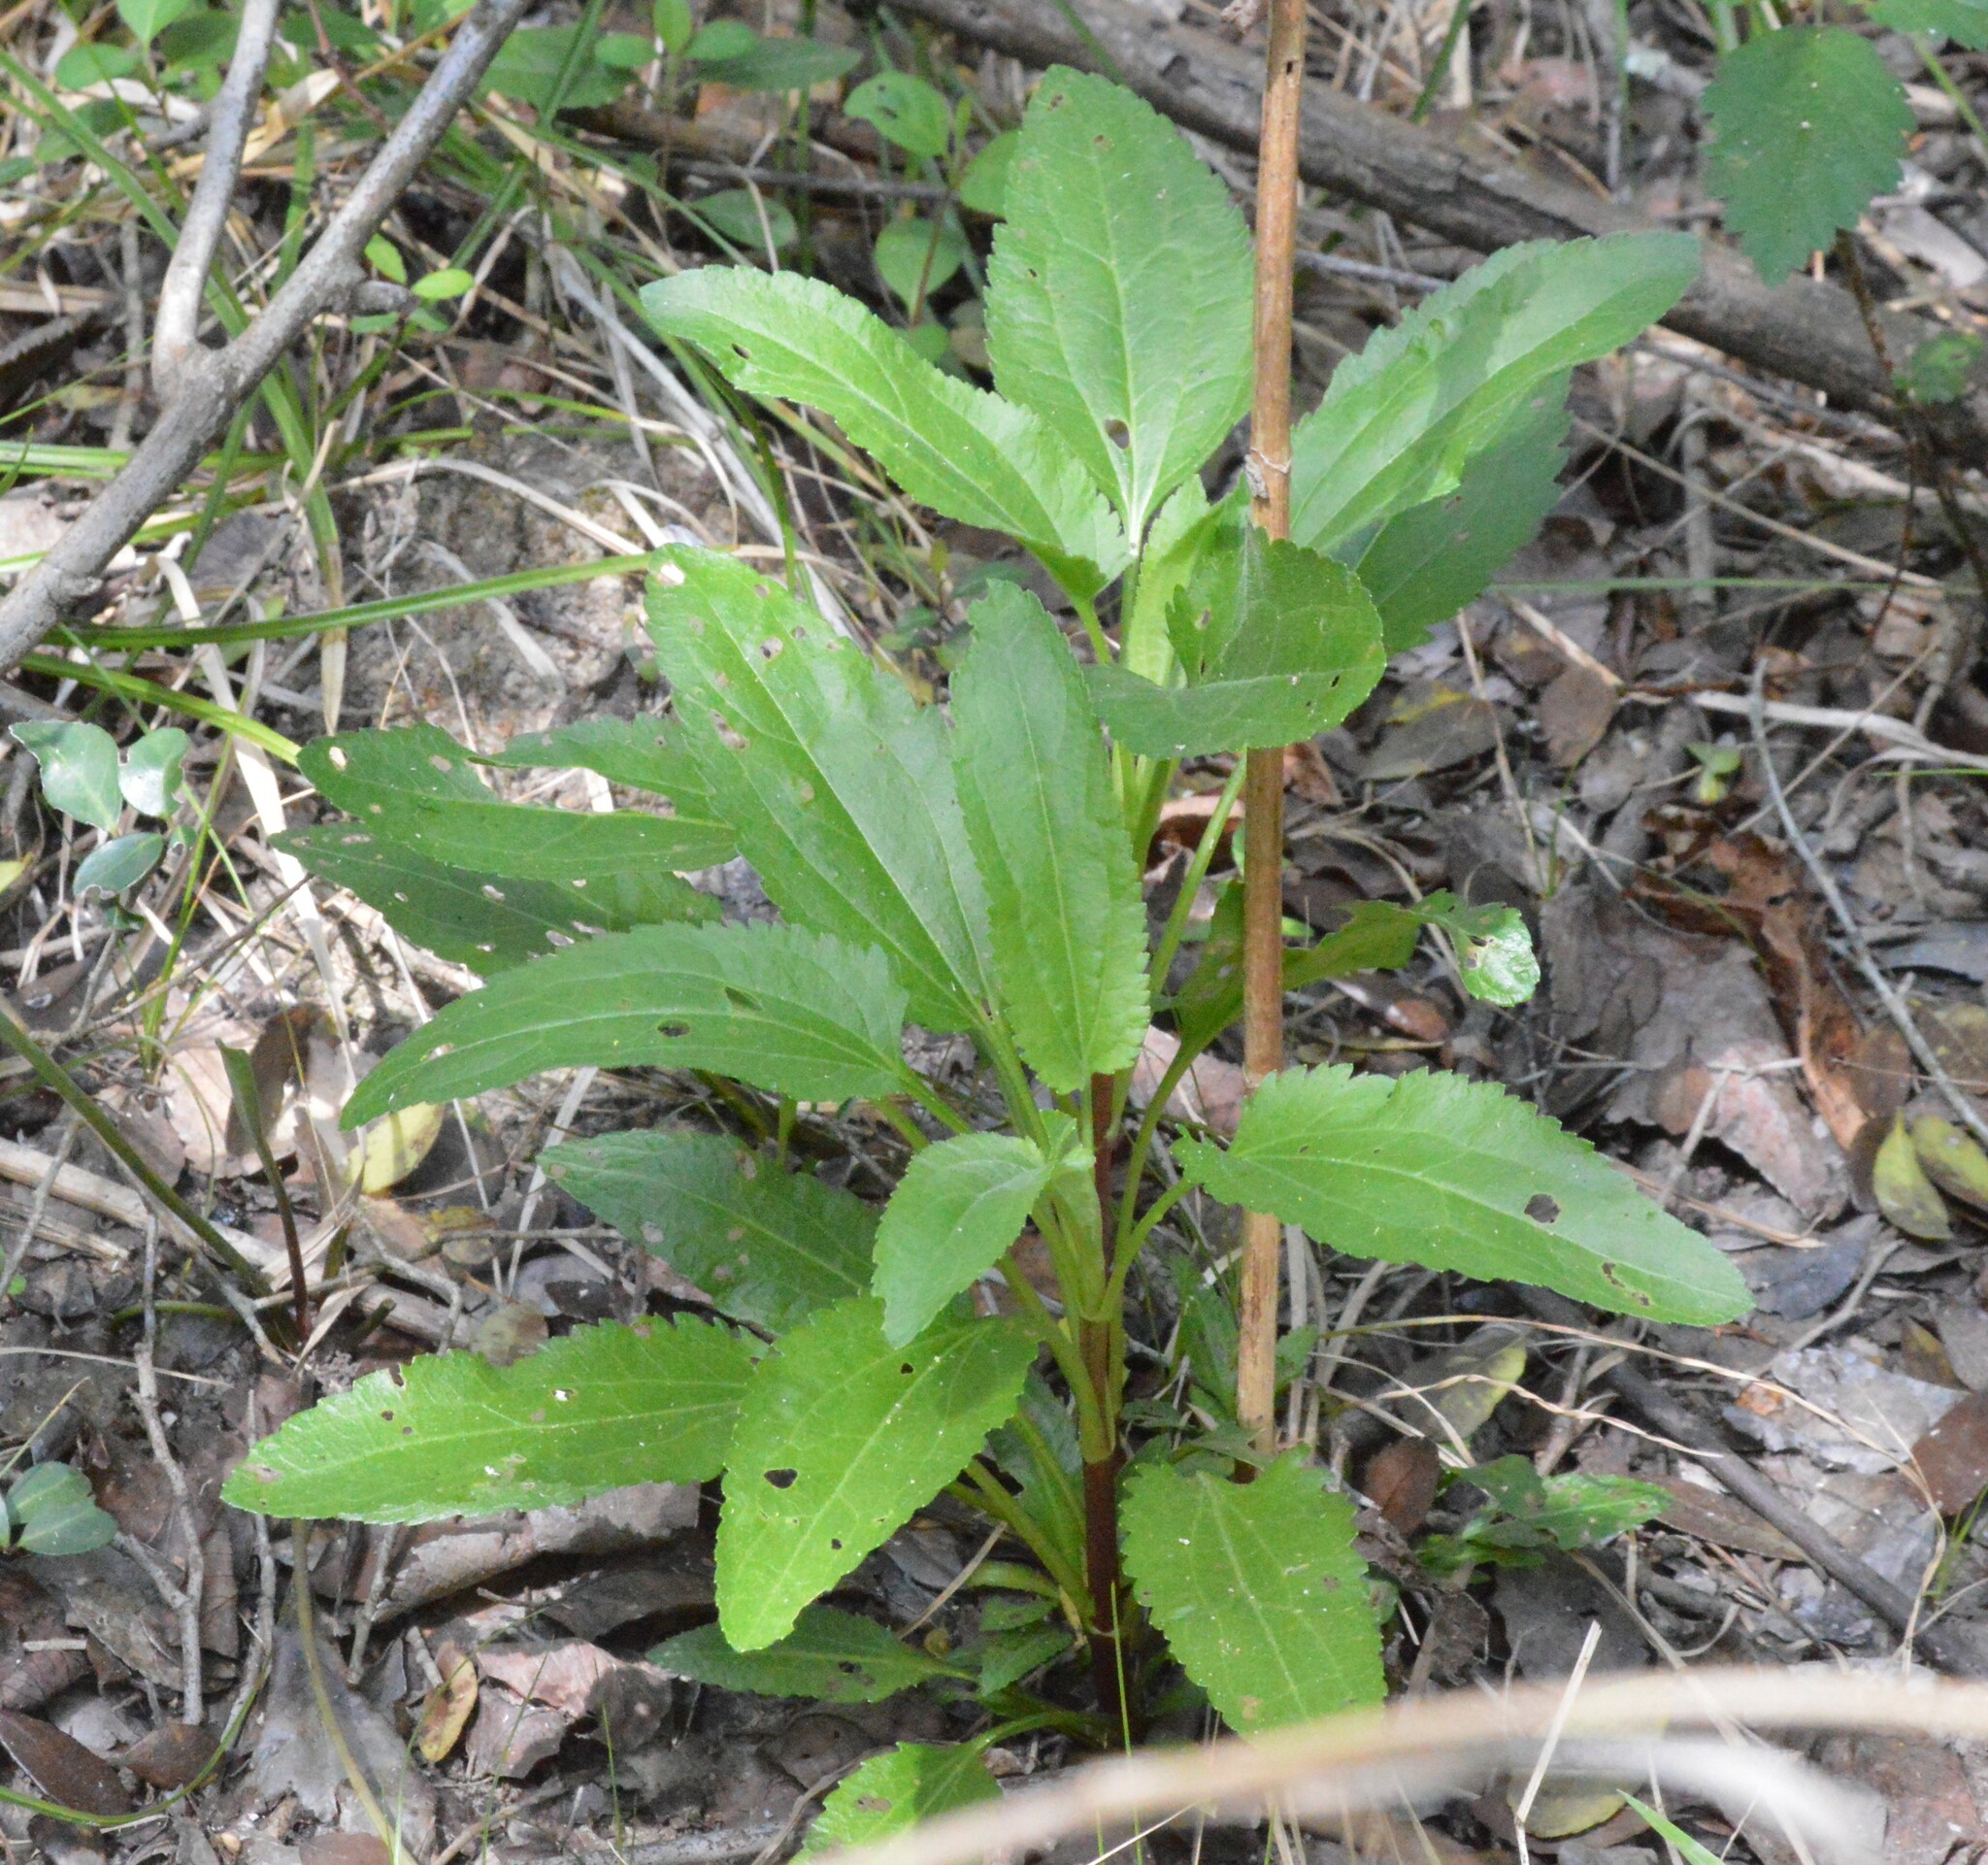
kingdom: Plantae
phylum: Tracheophyta
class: Magnoliopsida
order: Asterales
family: Asteraceae
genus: Eupatorium
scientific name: Eupatorium serotinum
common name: Late boneset
